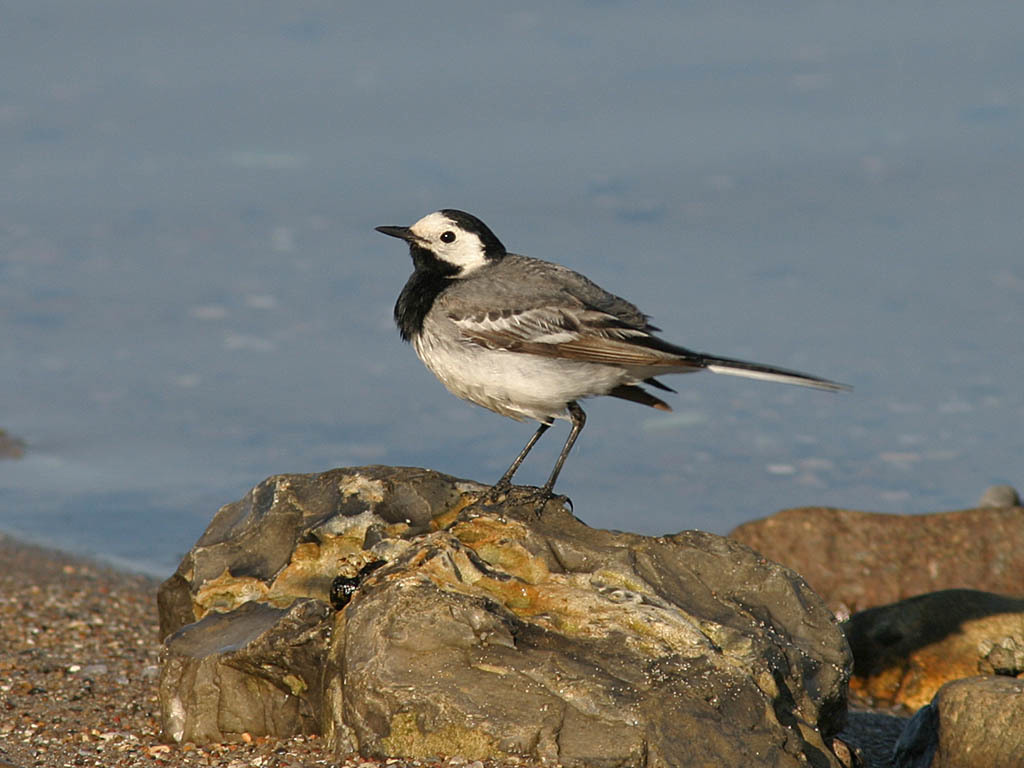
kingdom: Animalia
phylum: Chordata
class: Aves
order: Passeriformes
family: Motacillidae
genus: Motacilla
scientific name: Motacilla alba
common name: White wagtail
